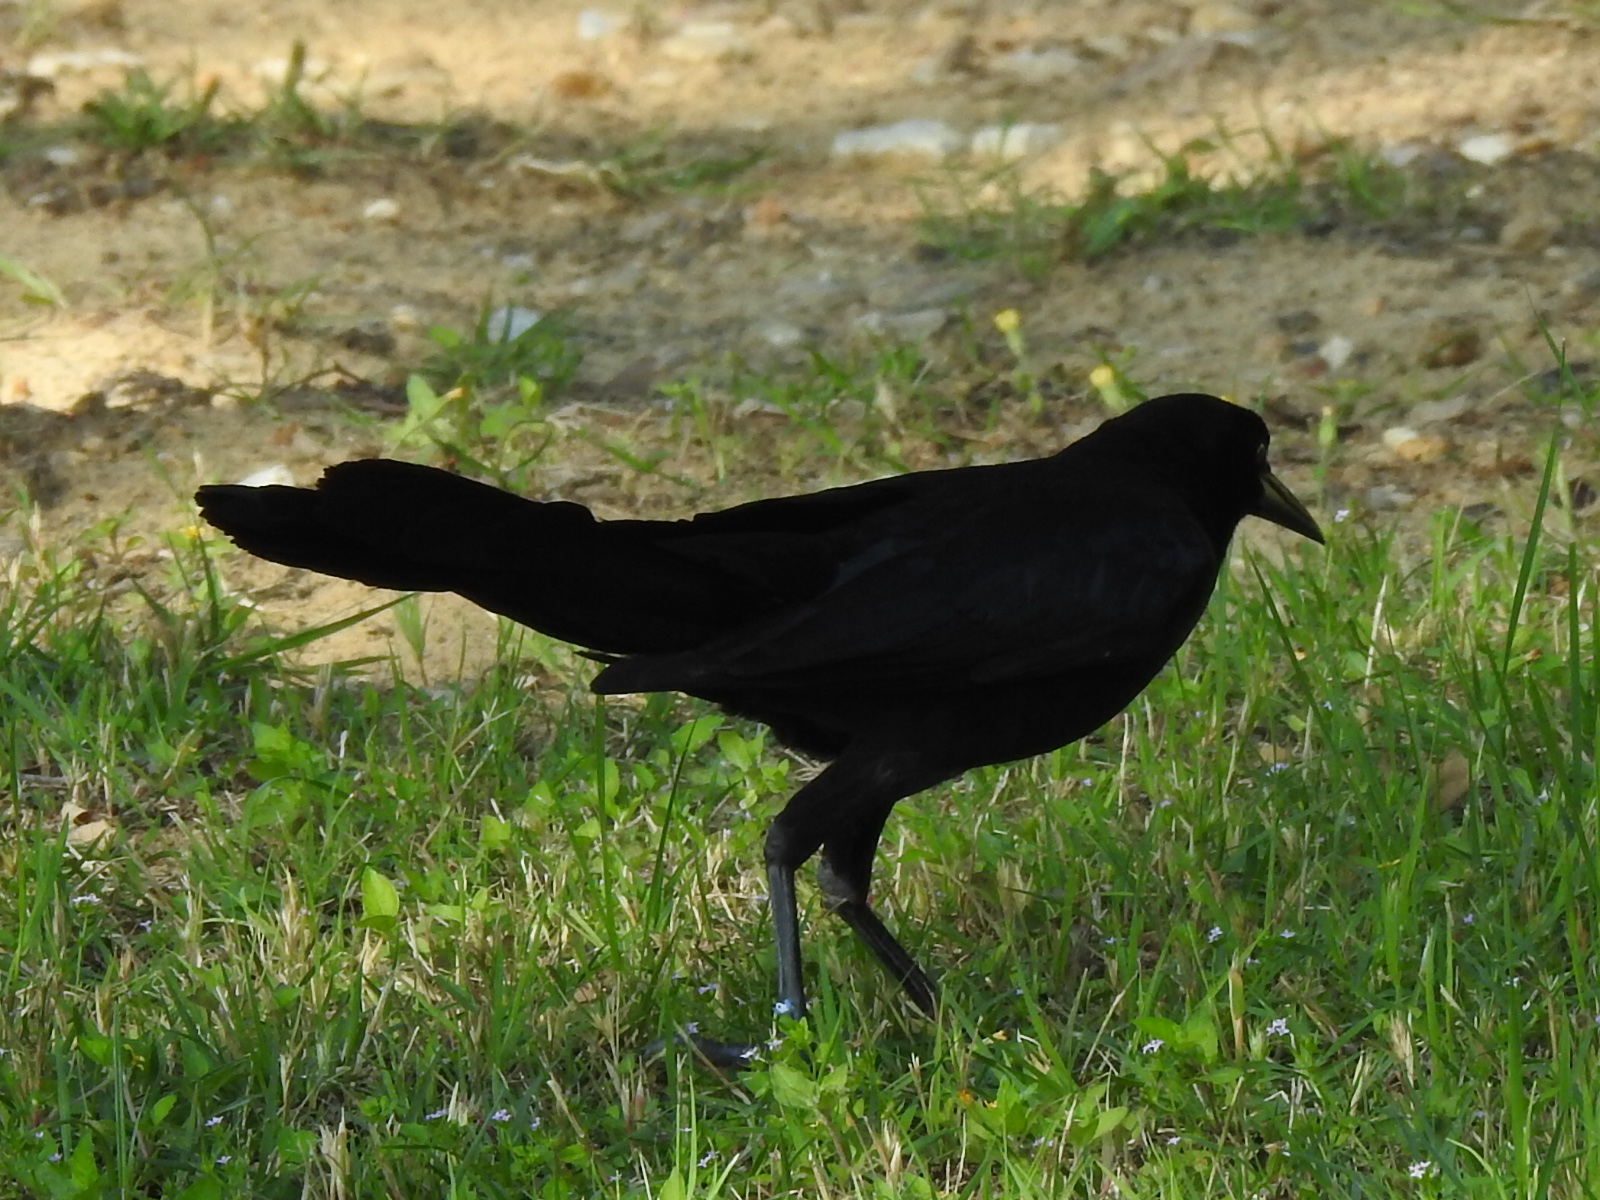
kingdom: Animalia
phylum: Chordata
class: Aves
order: Passeriformes
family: Icteridae
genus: Quiscalus
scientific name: Quiscalus mexicanus
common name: Great-tailed grackle
